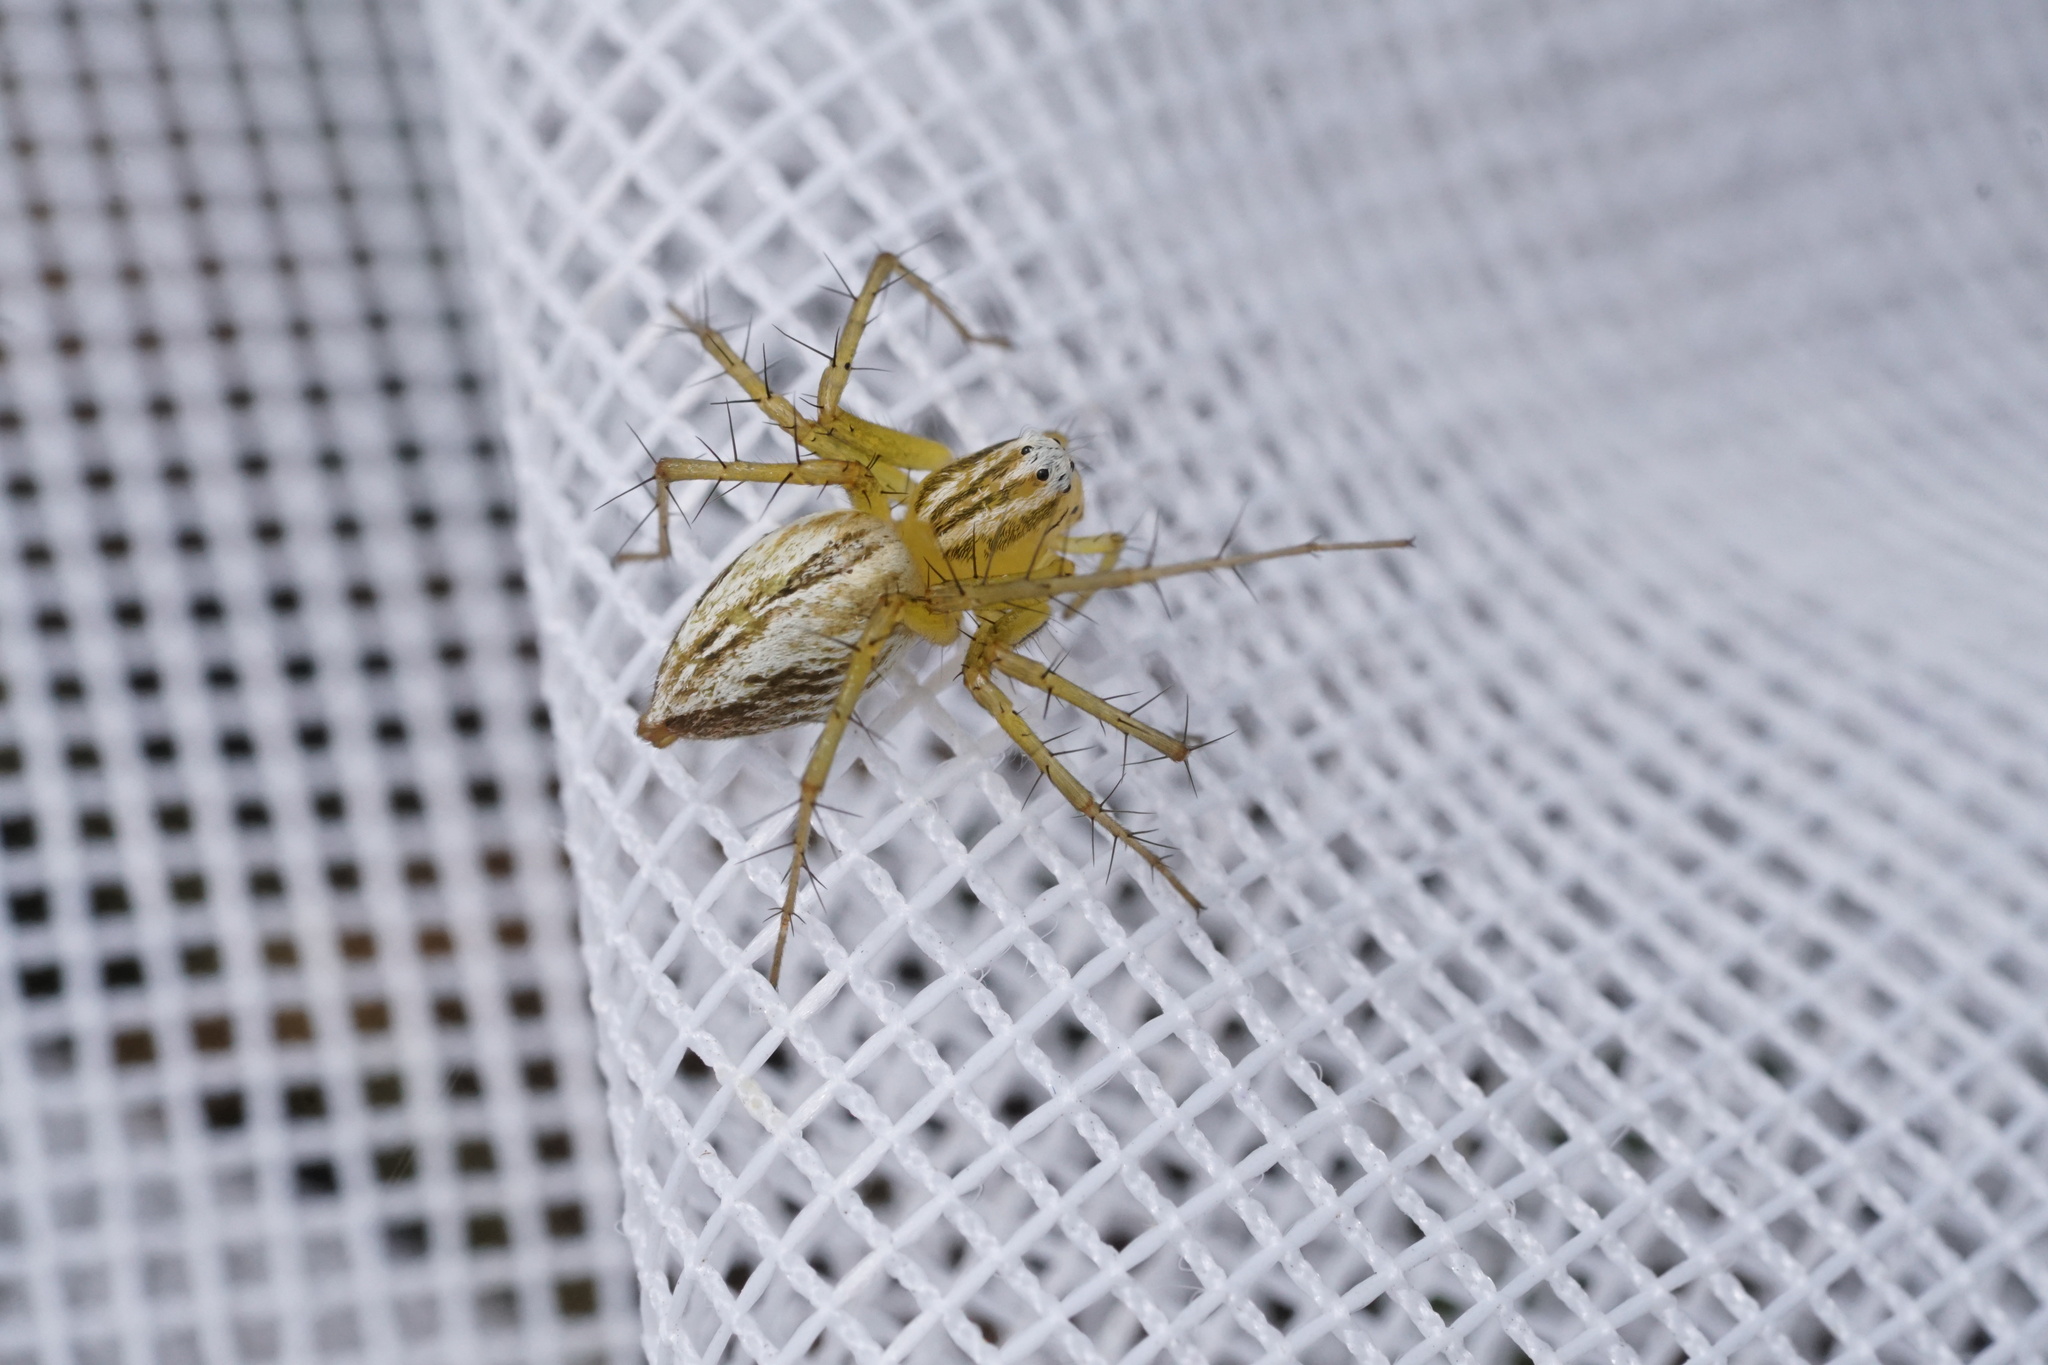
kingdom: Animalia
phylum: Arthropoda
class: Arachnida
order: Araneae
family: Oxyopidae
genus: Oxyopes
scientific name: Oxyopes salticus
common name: Lynx spiders
